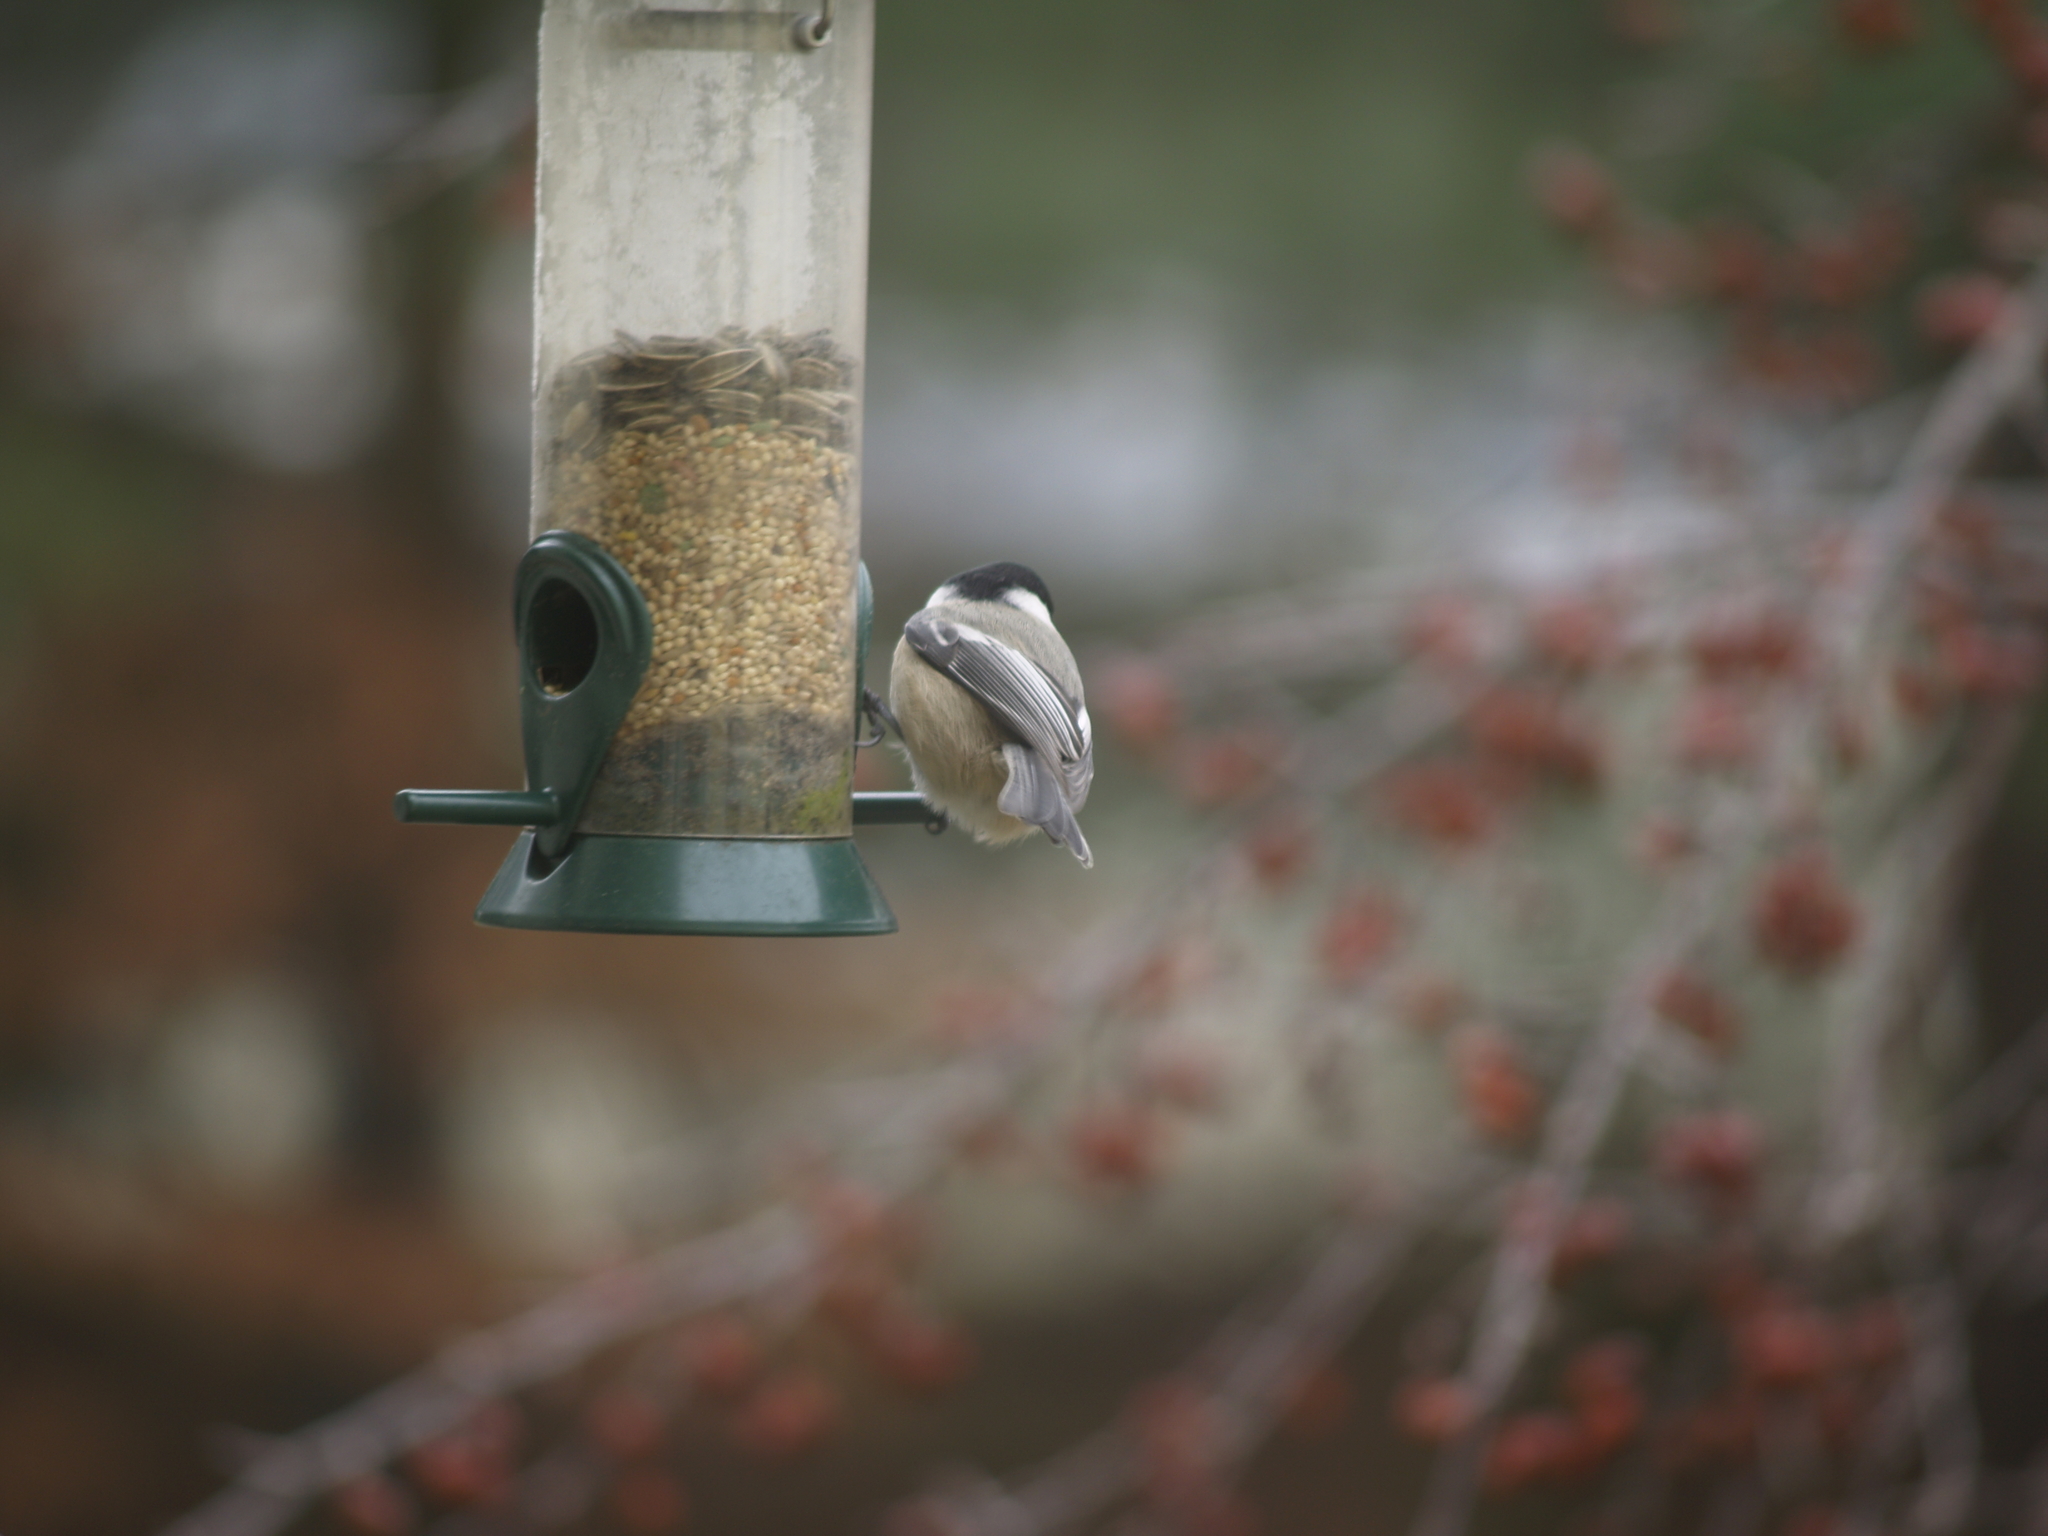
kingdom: Animalia
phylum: Chordata
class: Aves
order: Passeriformes
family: Paridae
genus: Poecile
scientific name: Poecile atricapillus
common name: Black-capped chickadee
